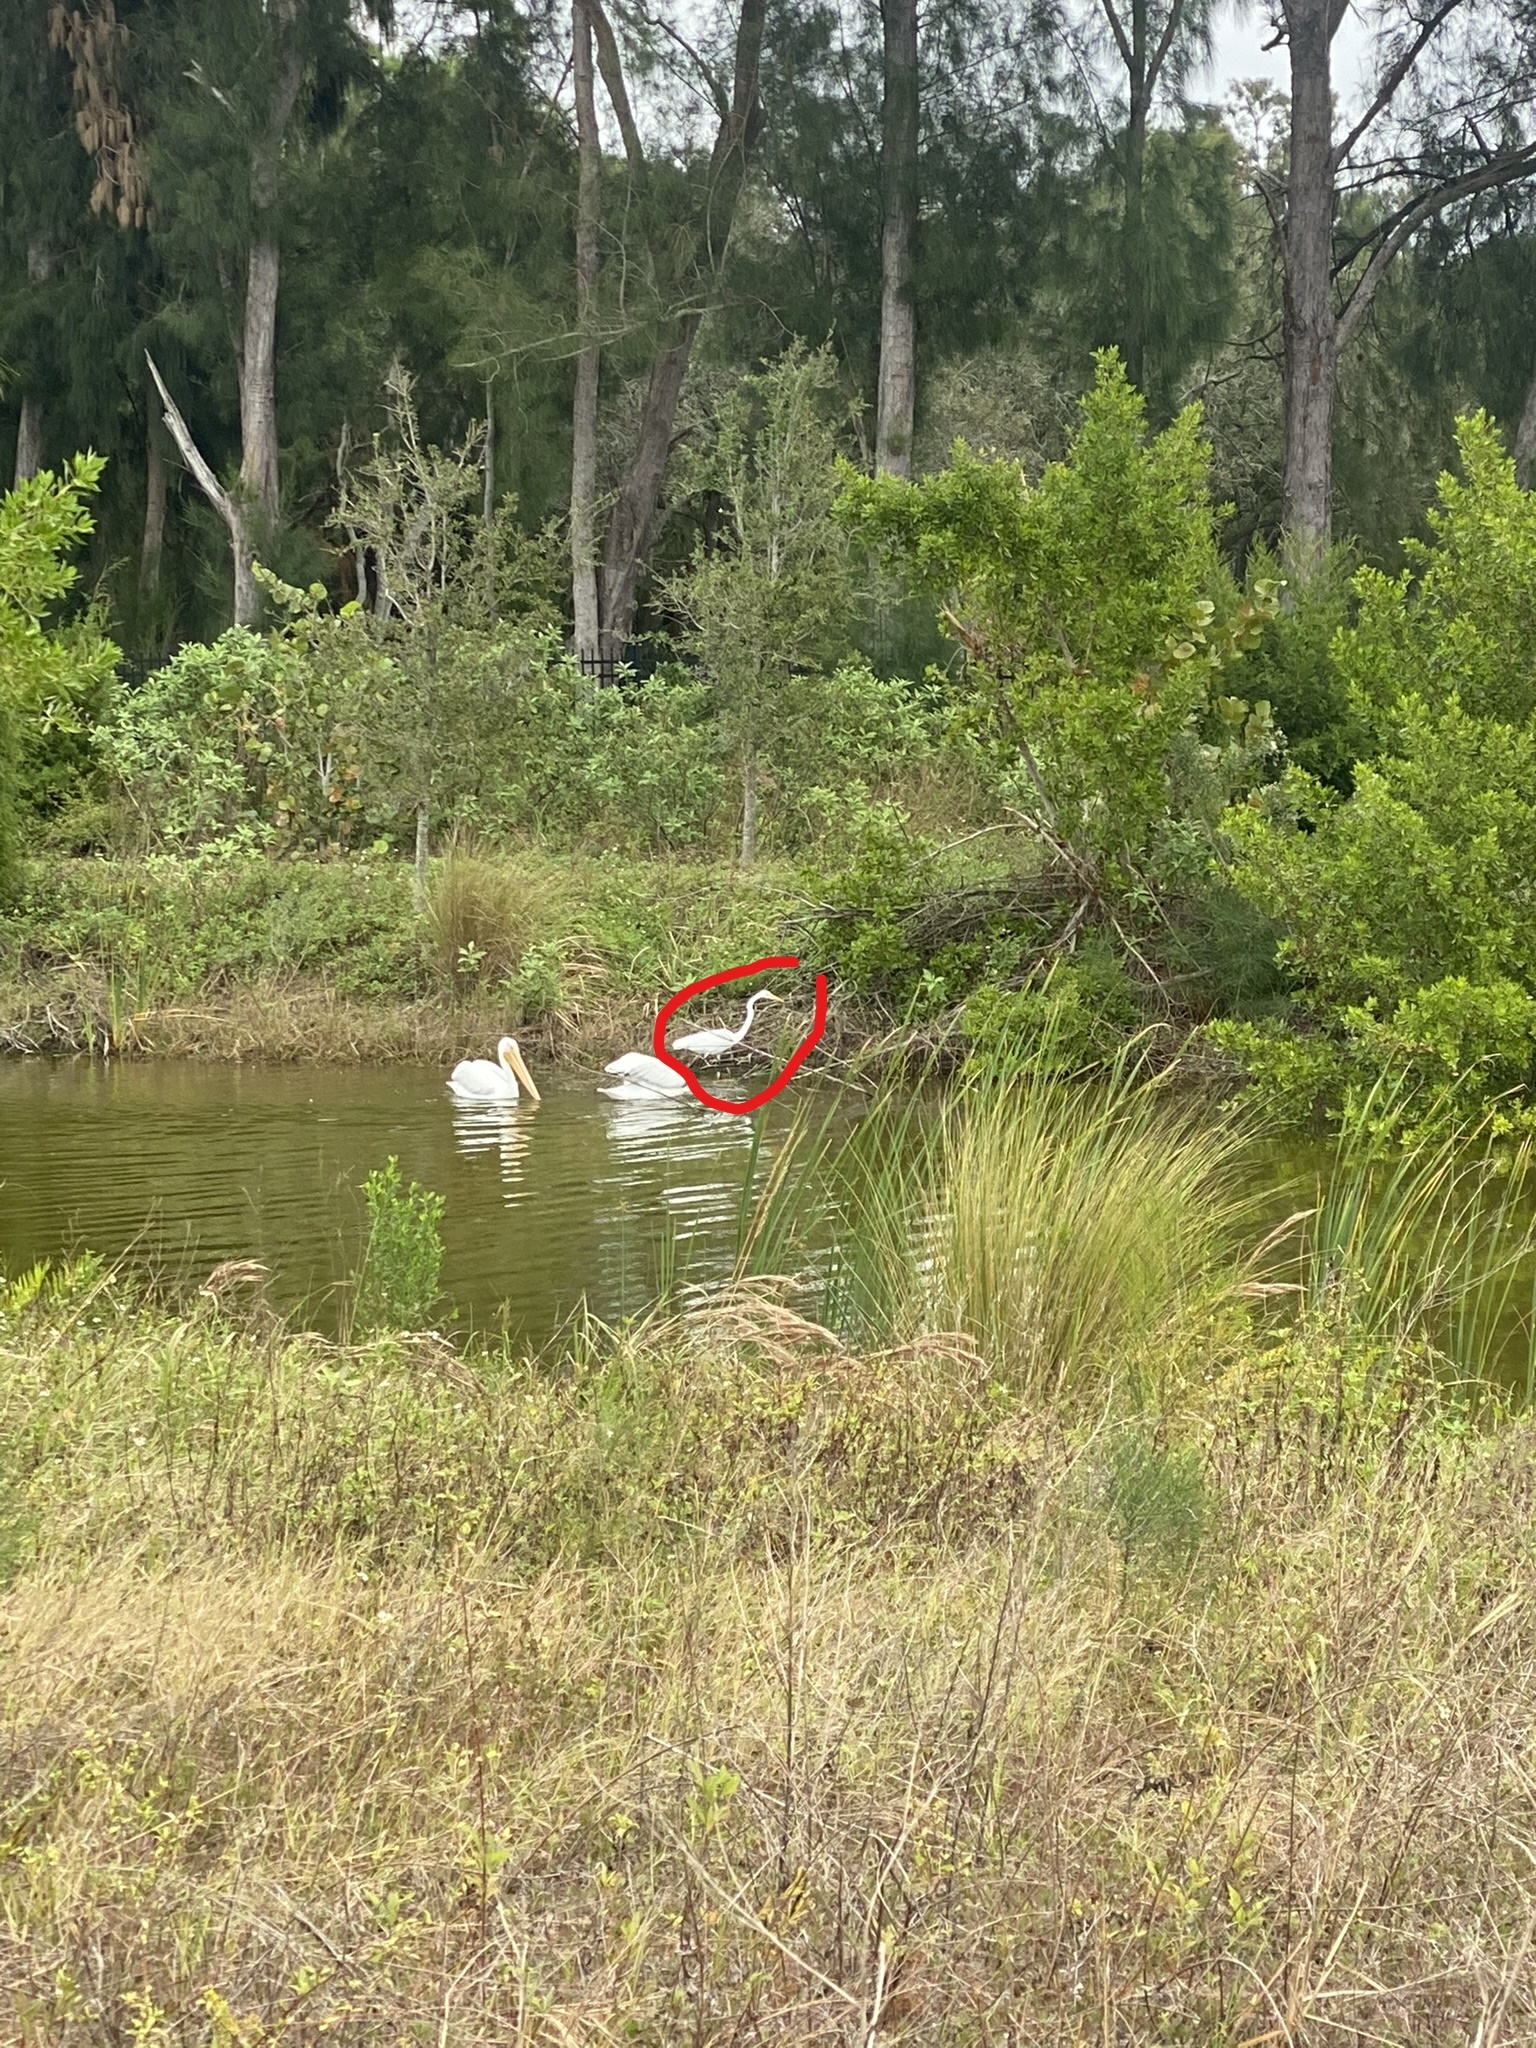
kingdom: Animalia
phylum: Chordata
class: Aves
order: Pelecaniformes
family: Ardeidae
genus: Ardea
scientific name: Ardea alba
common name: Great egret
